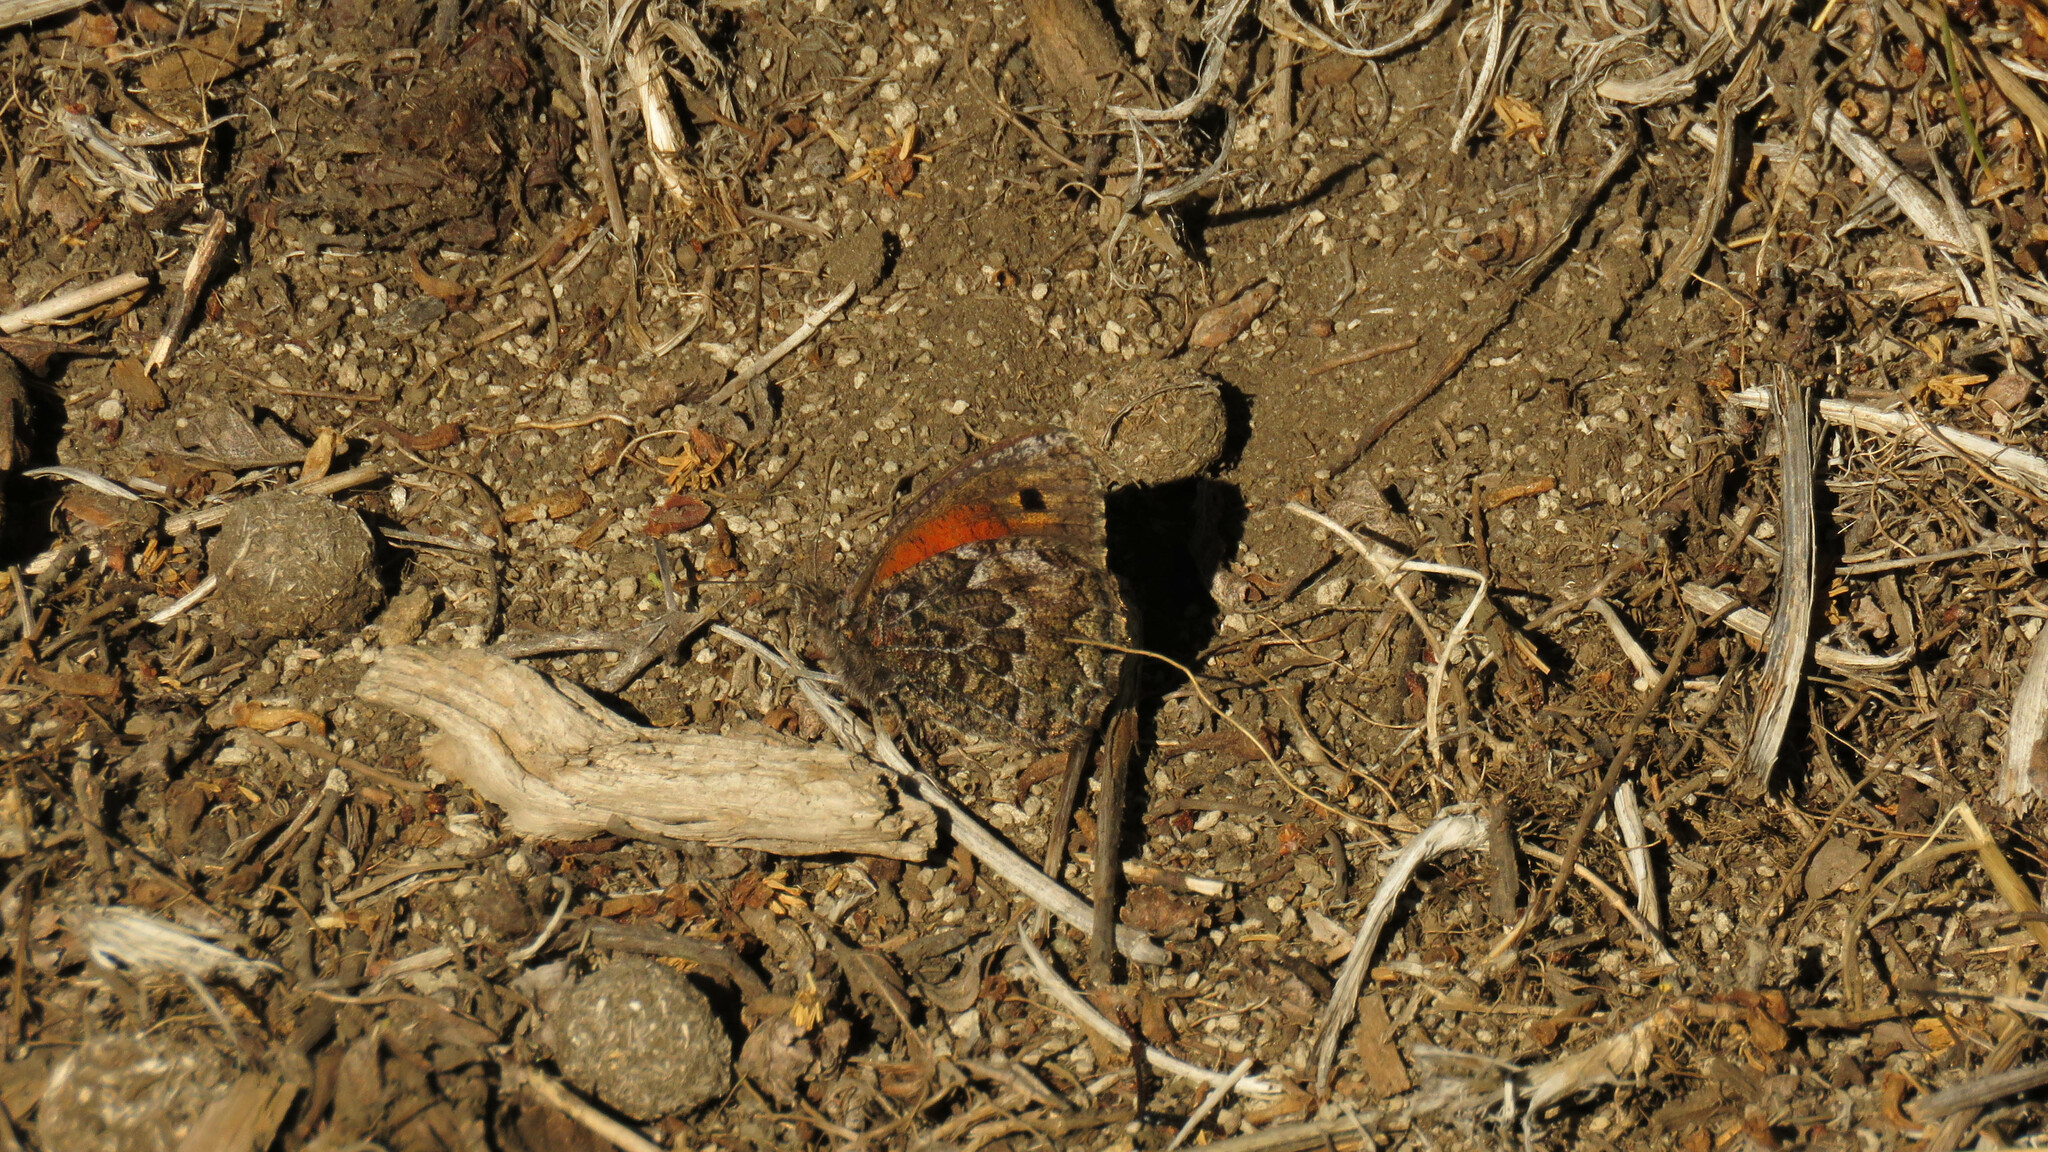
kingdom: Animalia
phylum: Arthropoda
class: Insecta
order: Lepidoptera
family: Nymphalidae
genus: Argyrophorus
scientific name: Argyrophorus
